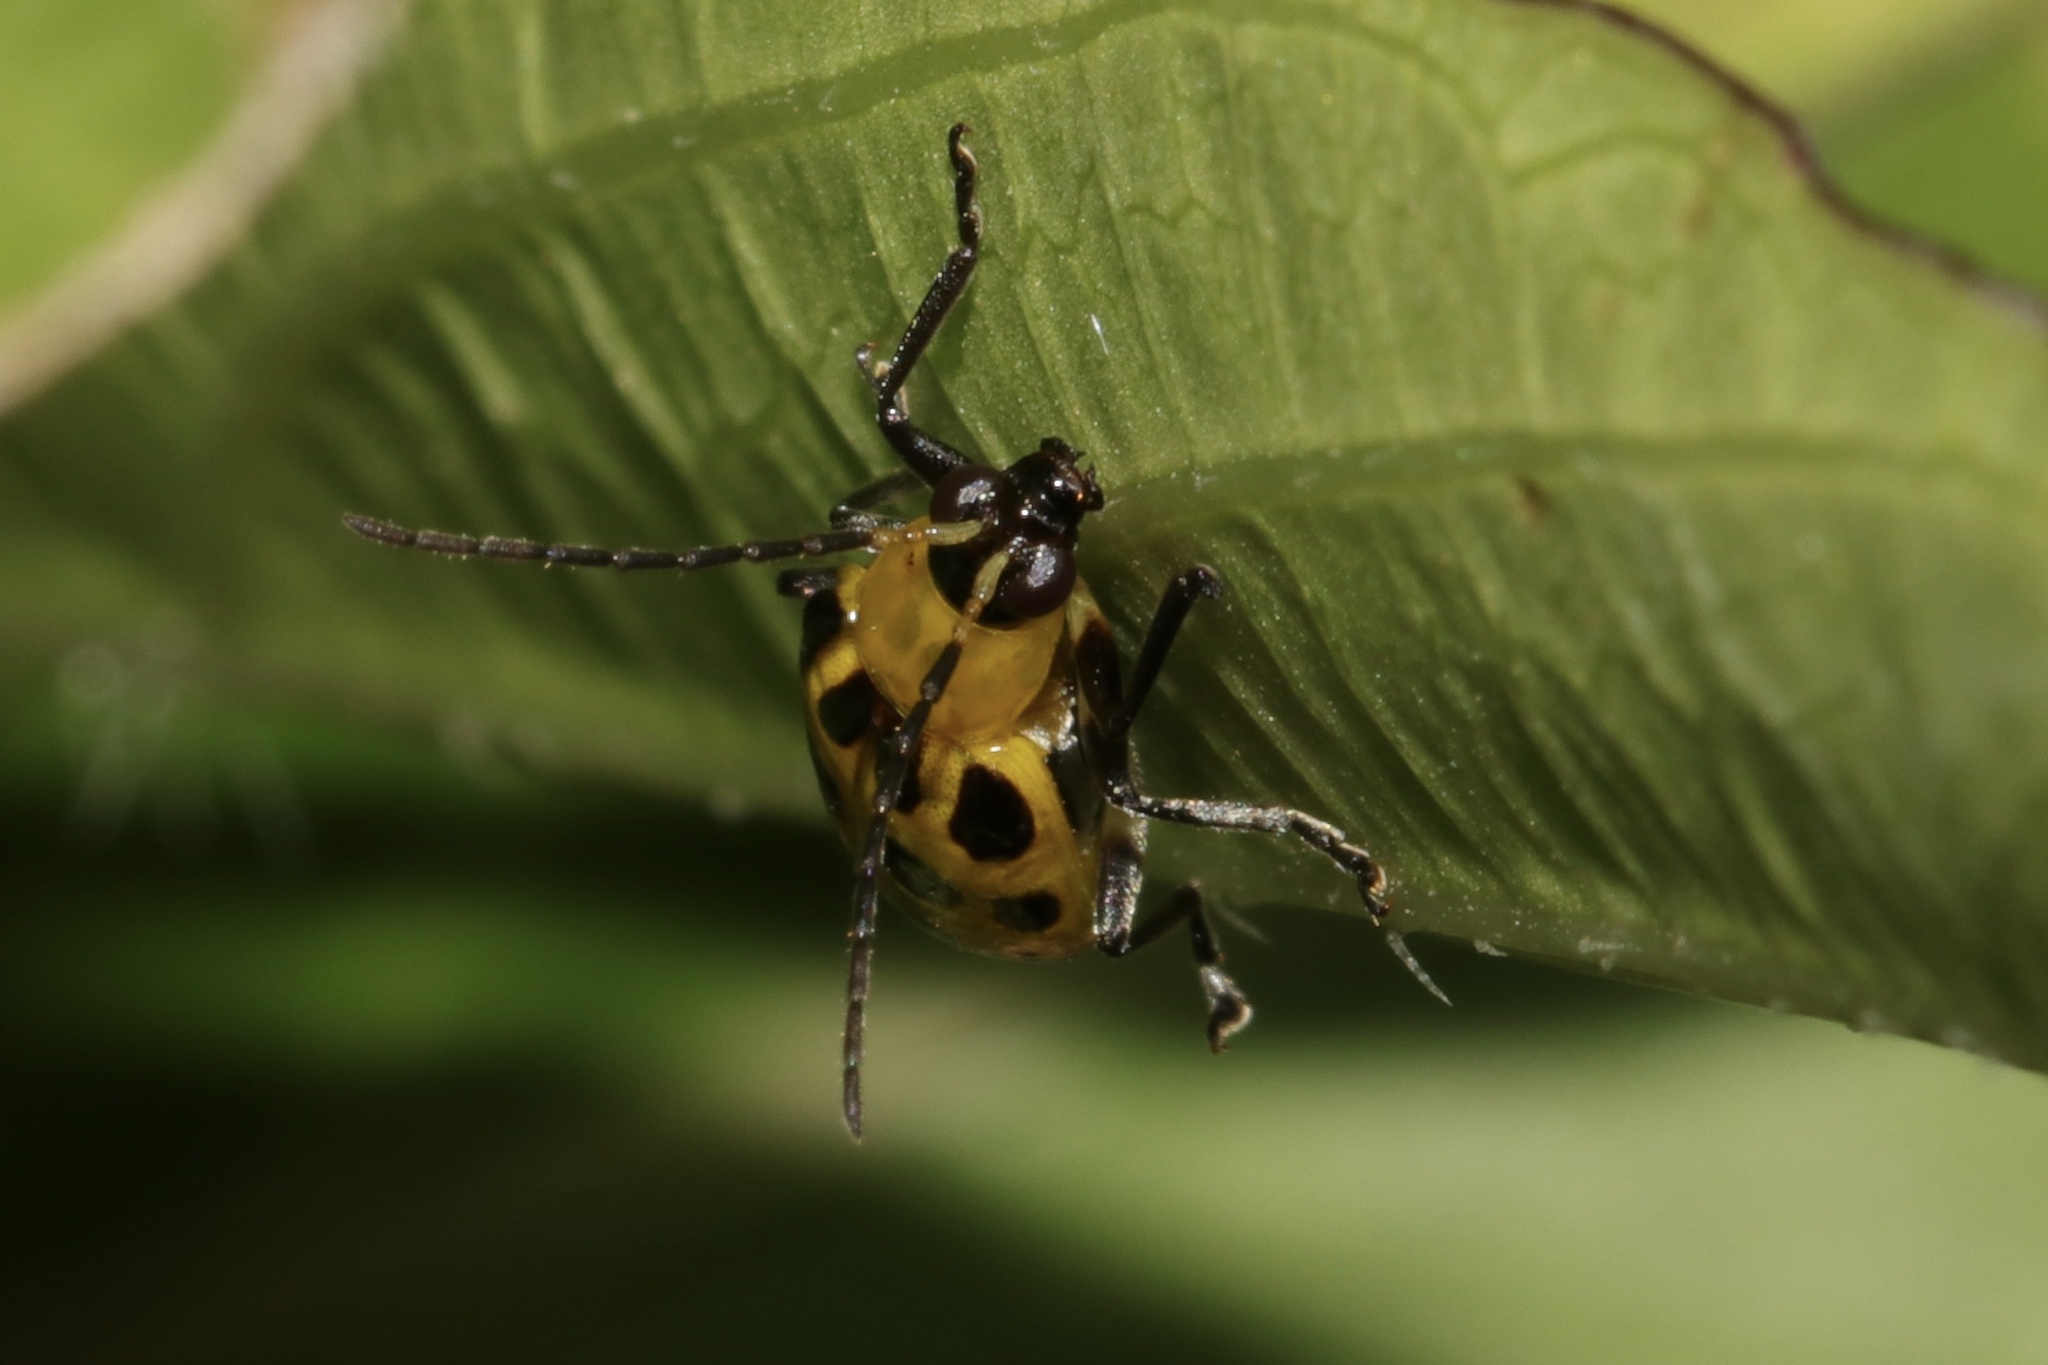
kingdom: Animalia
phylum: Arthropoda
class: Insecta
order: Coleoptera
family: Chrysomelidae
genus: Diabrotica
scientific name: Diabrotica undecimpunctata
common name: Spotted cucumber beetle
